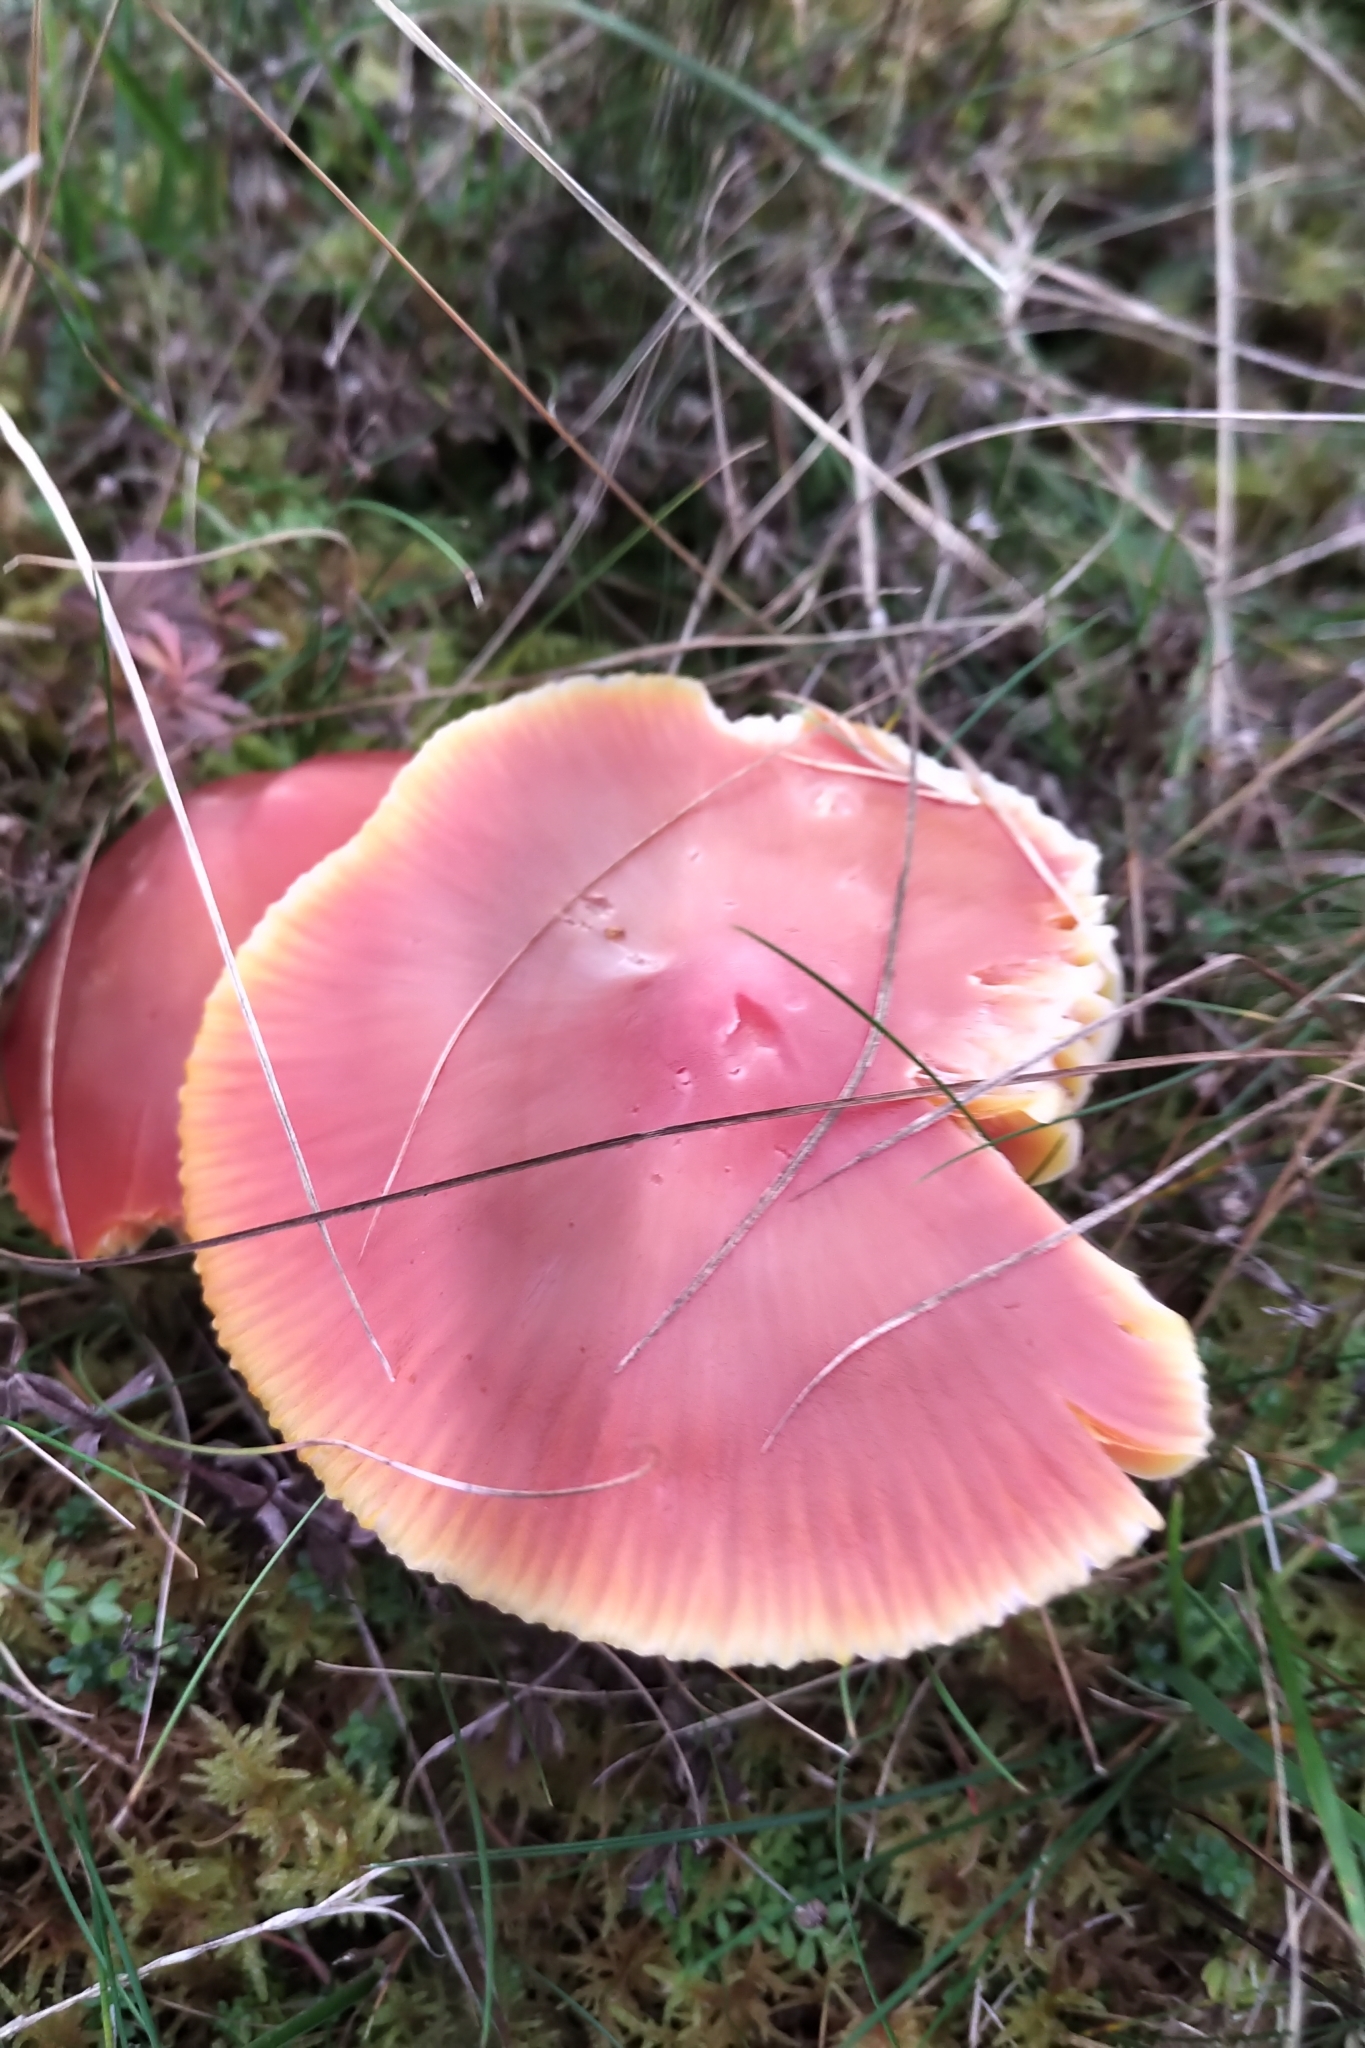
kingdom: Fungi
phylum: Basidiomycota
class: Agaricomycetes
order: Agaricales
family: Hygrophoraceae
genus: Hygrocybe
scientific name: Hygrocybe punicea
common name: Crimson waxcap
